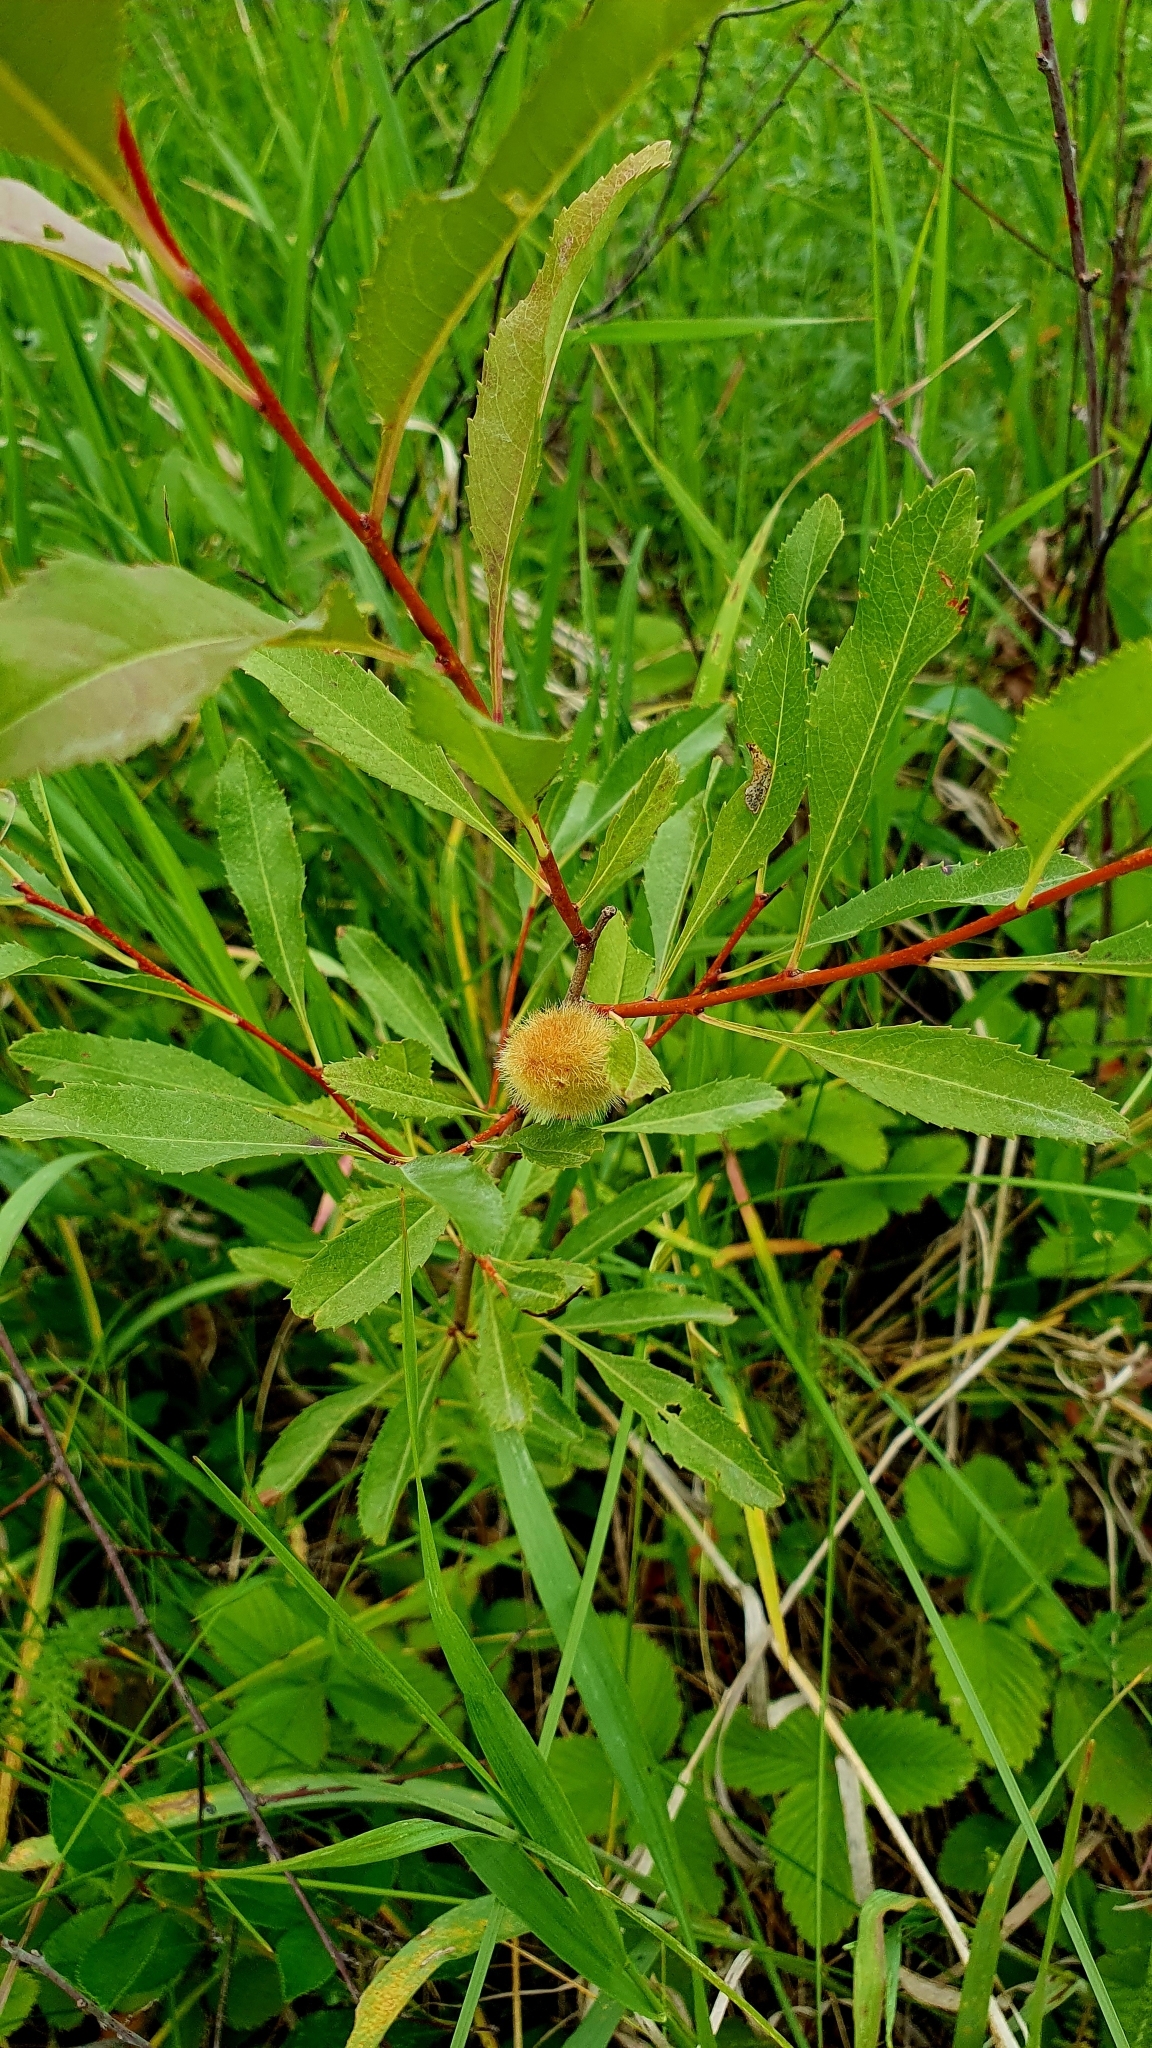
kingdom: Plantae
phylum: Tracheophyta
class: Magnoliopsida
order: Rosales
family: Rosaceae
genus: Prunus
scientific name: Prunus tenella
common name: Dwarf russian almond
